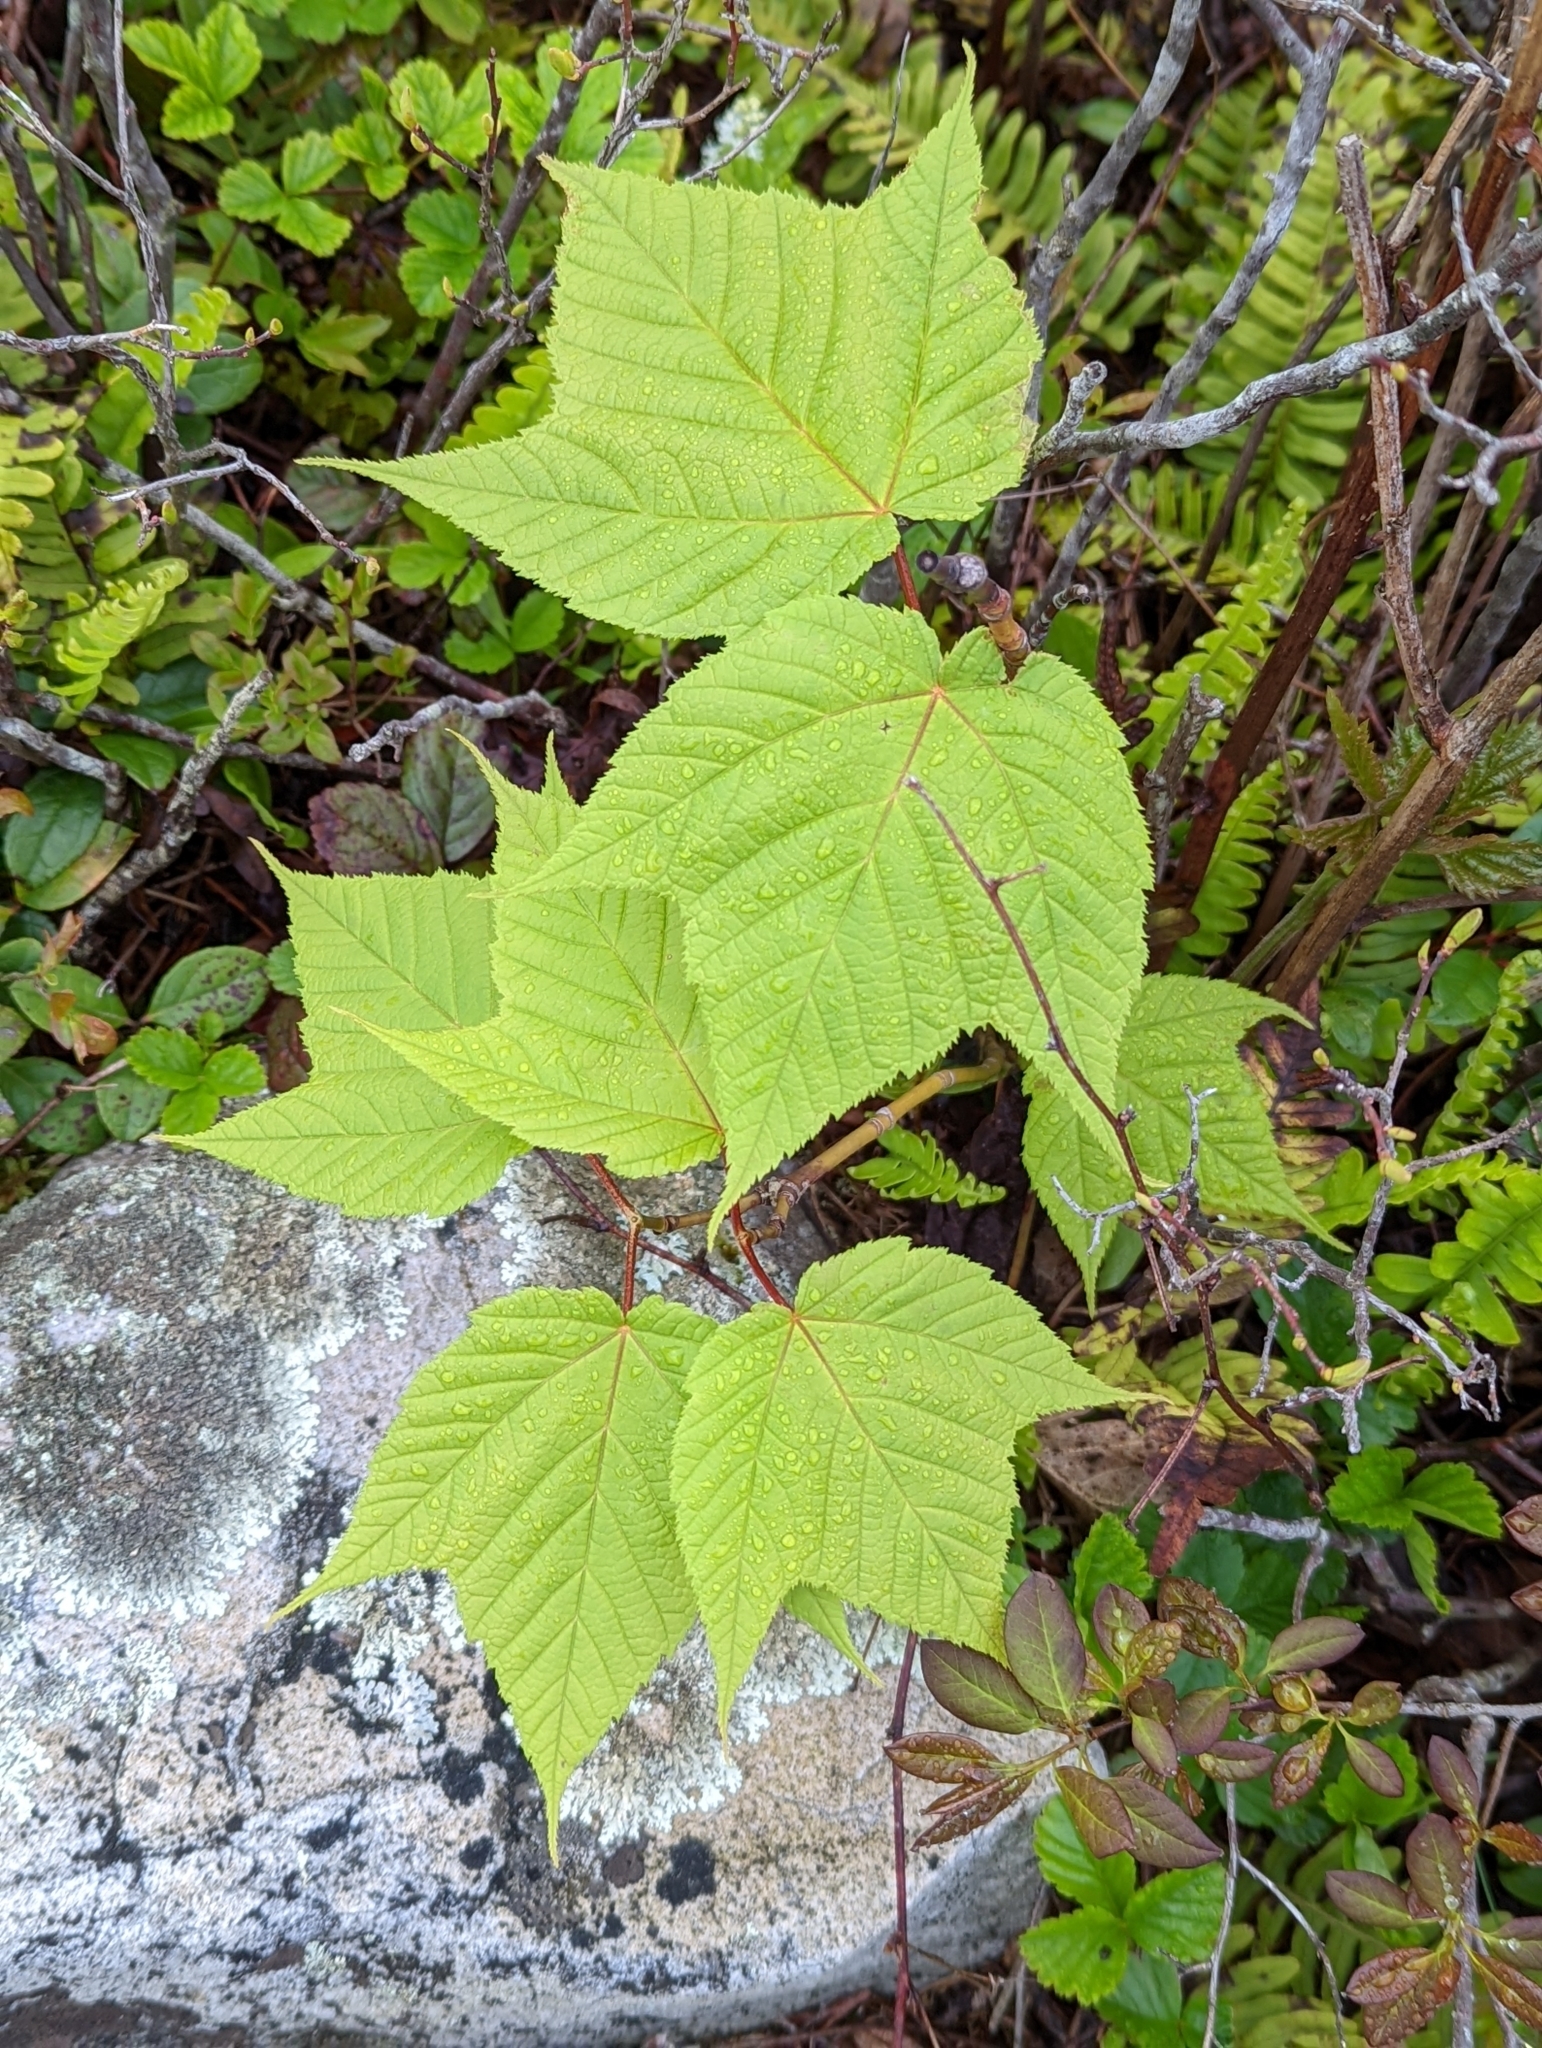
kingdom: Plantae
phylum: Tracheophyta
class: Magnoliopsida
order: Sapindales
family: Sapindaceae
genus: Acer
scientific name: Acer pensylvanicum
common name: Moosewood
